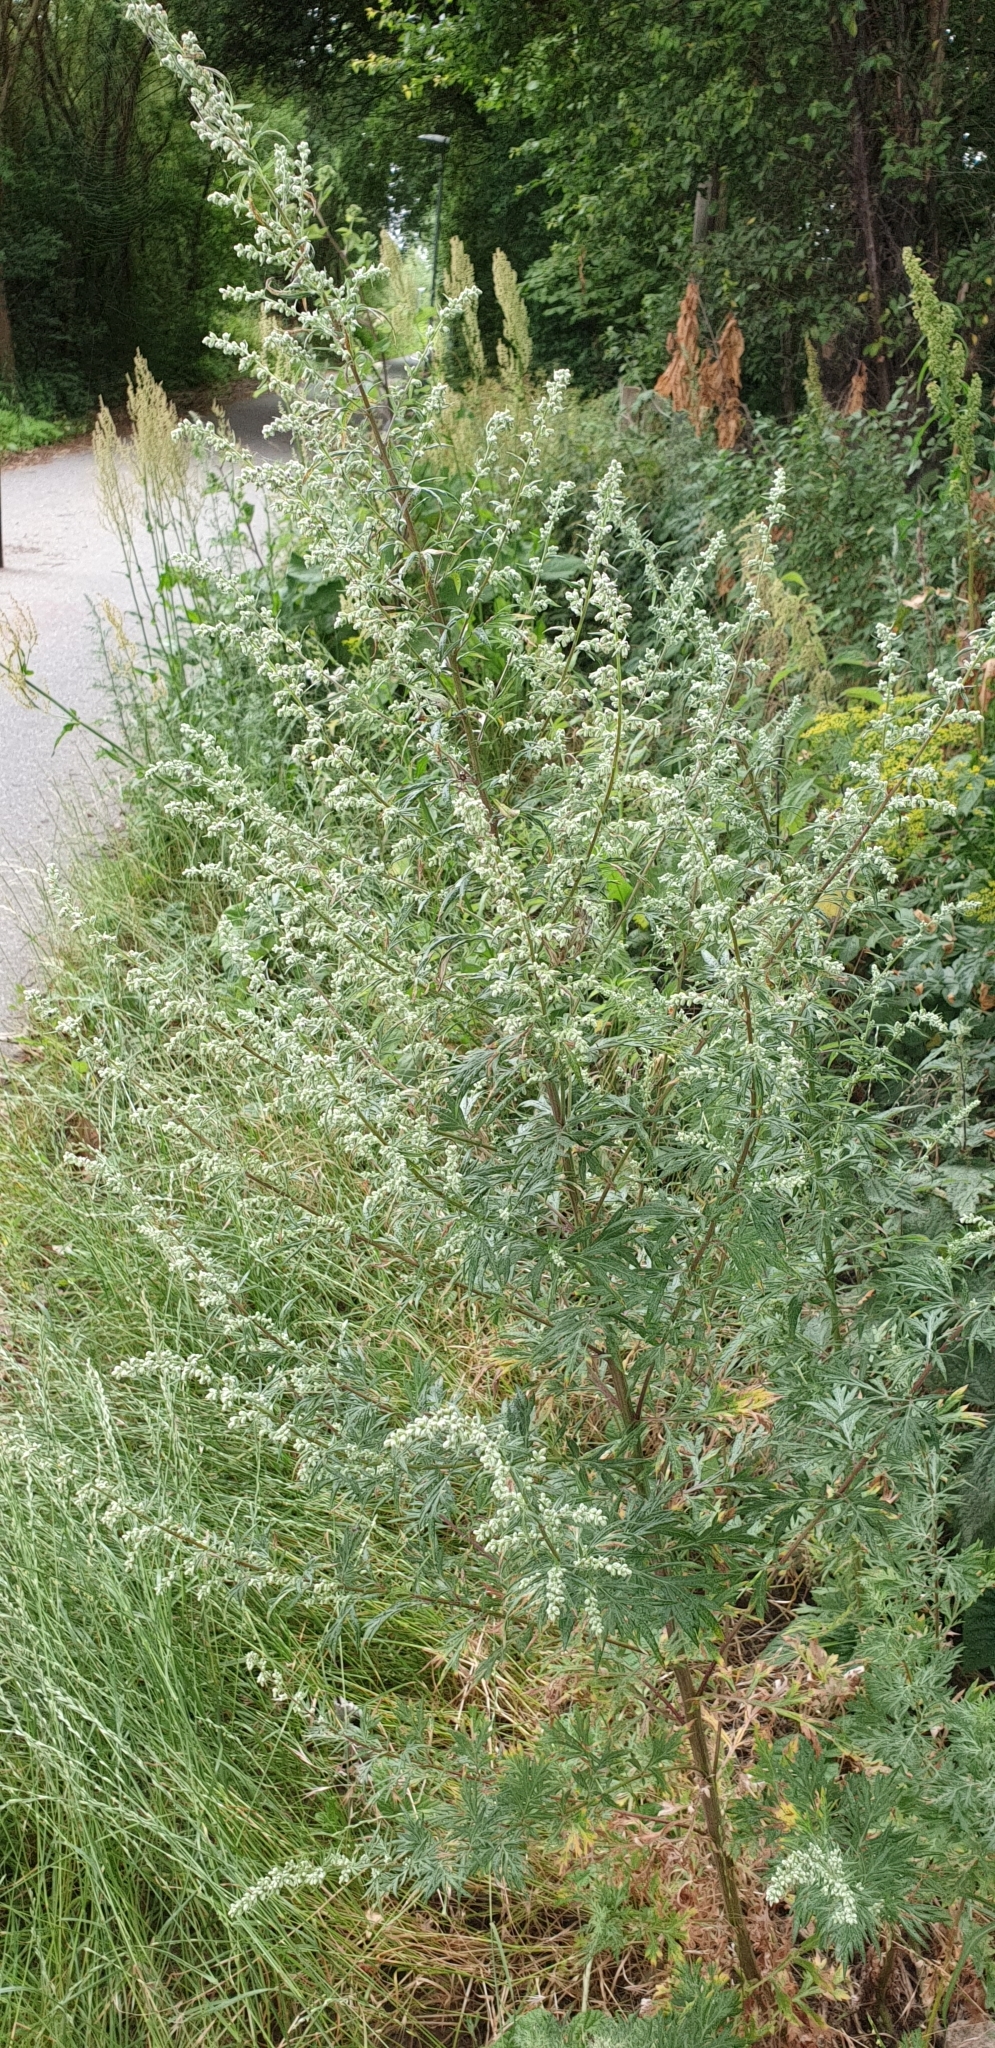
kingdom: Plantae
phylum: Tracheophyta
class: Magnoliopsida
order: Asterales
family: Asteraceae
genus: Artemisia
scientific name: Artemisia vulgaris
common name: Mugwort
